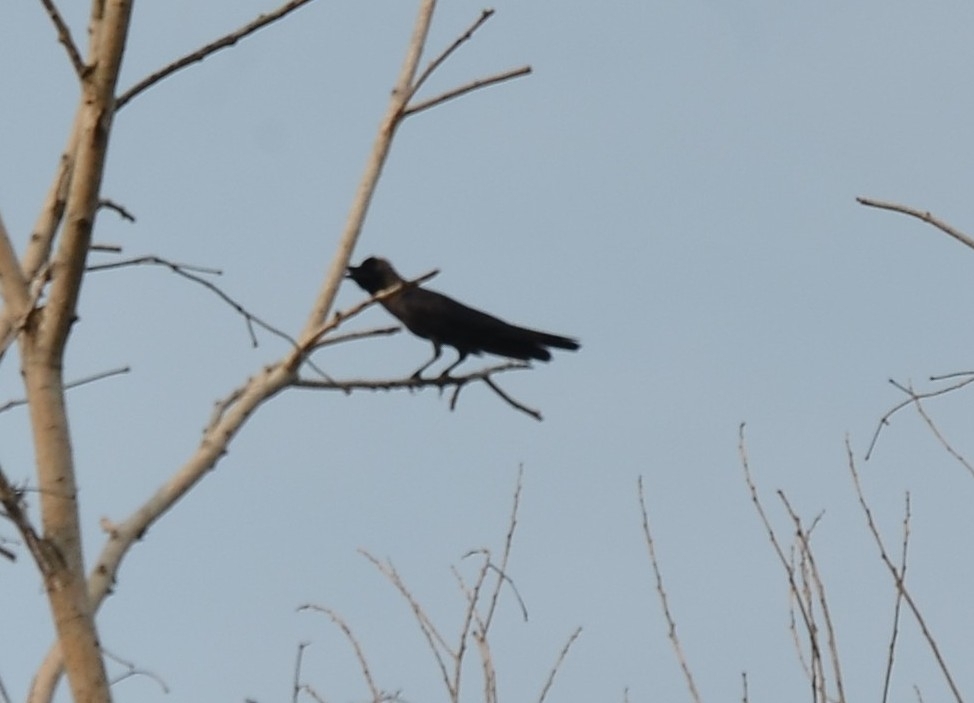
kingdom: Animalia
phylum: Chordata
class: Aves
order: Passeriformes
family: Corvidae
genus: Corvus
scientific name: Corvus splendens
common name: House crow
